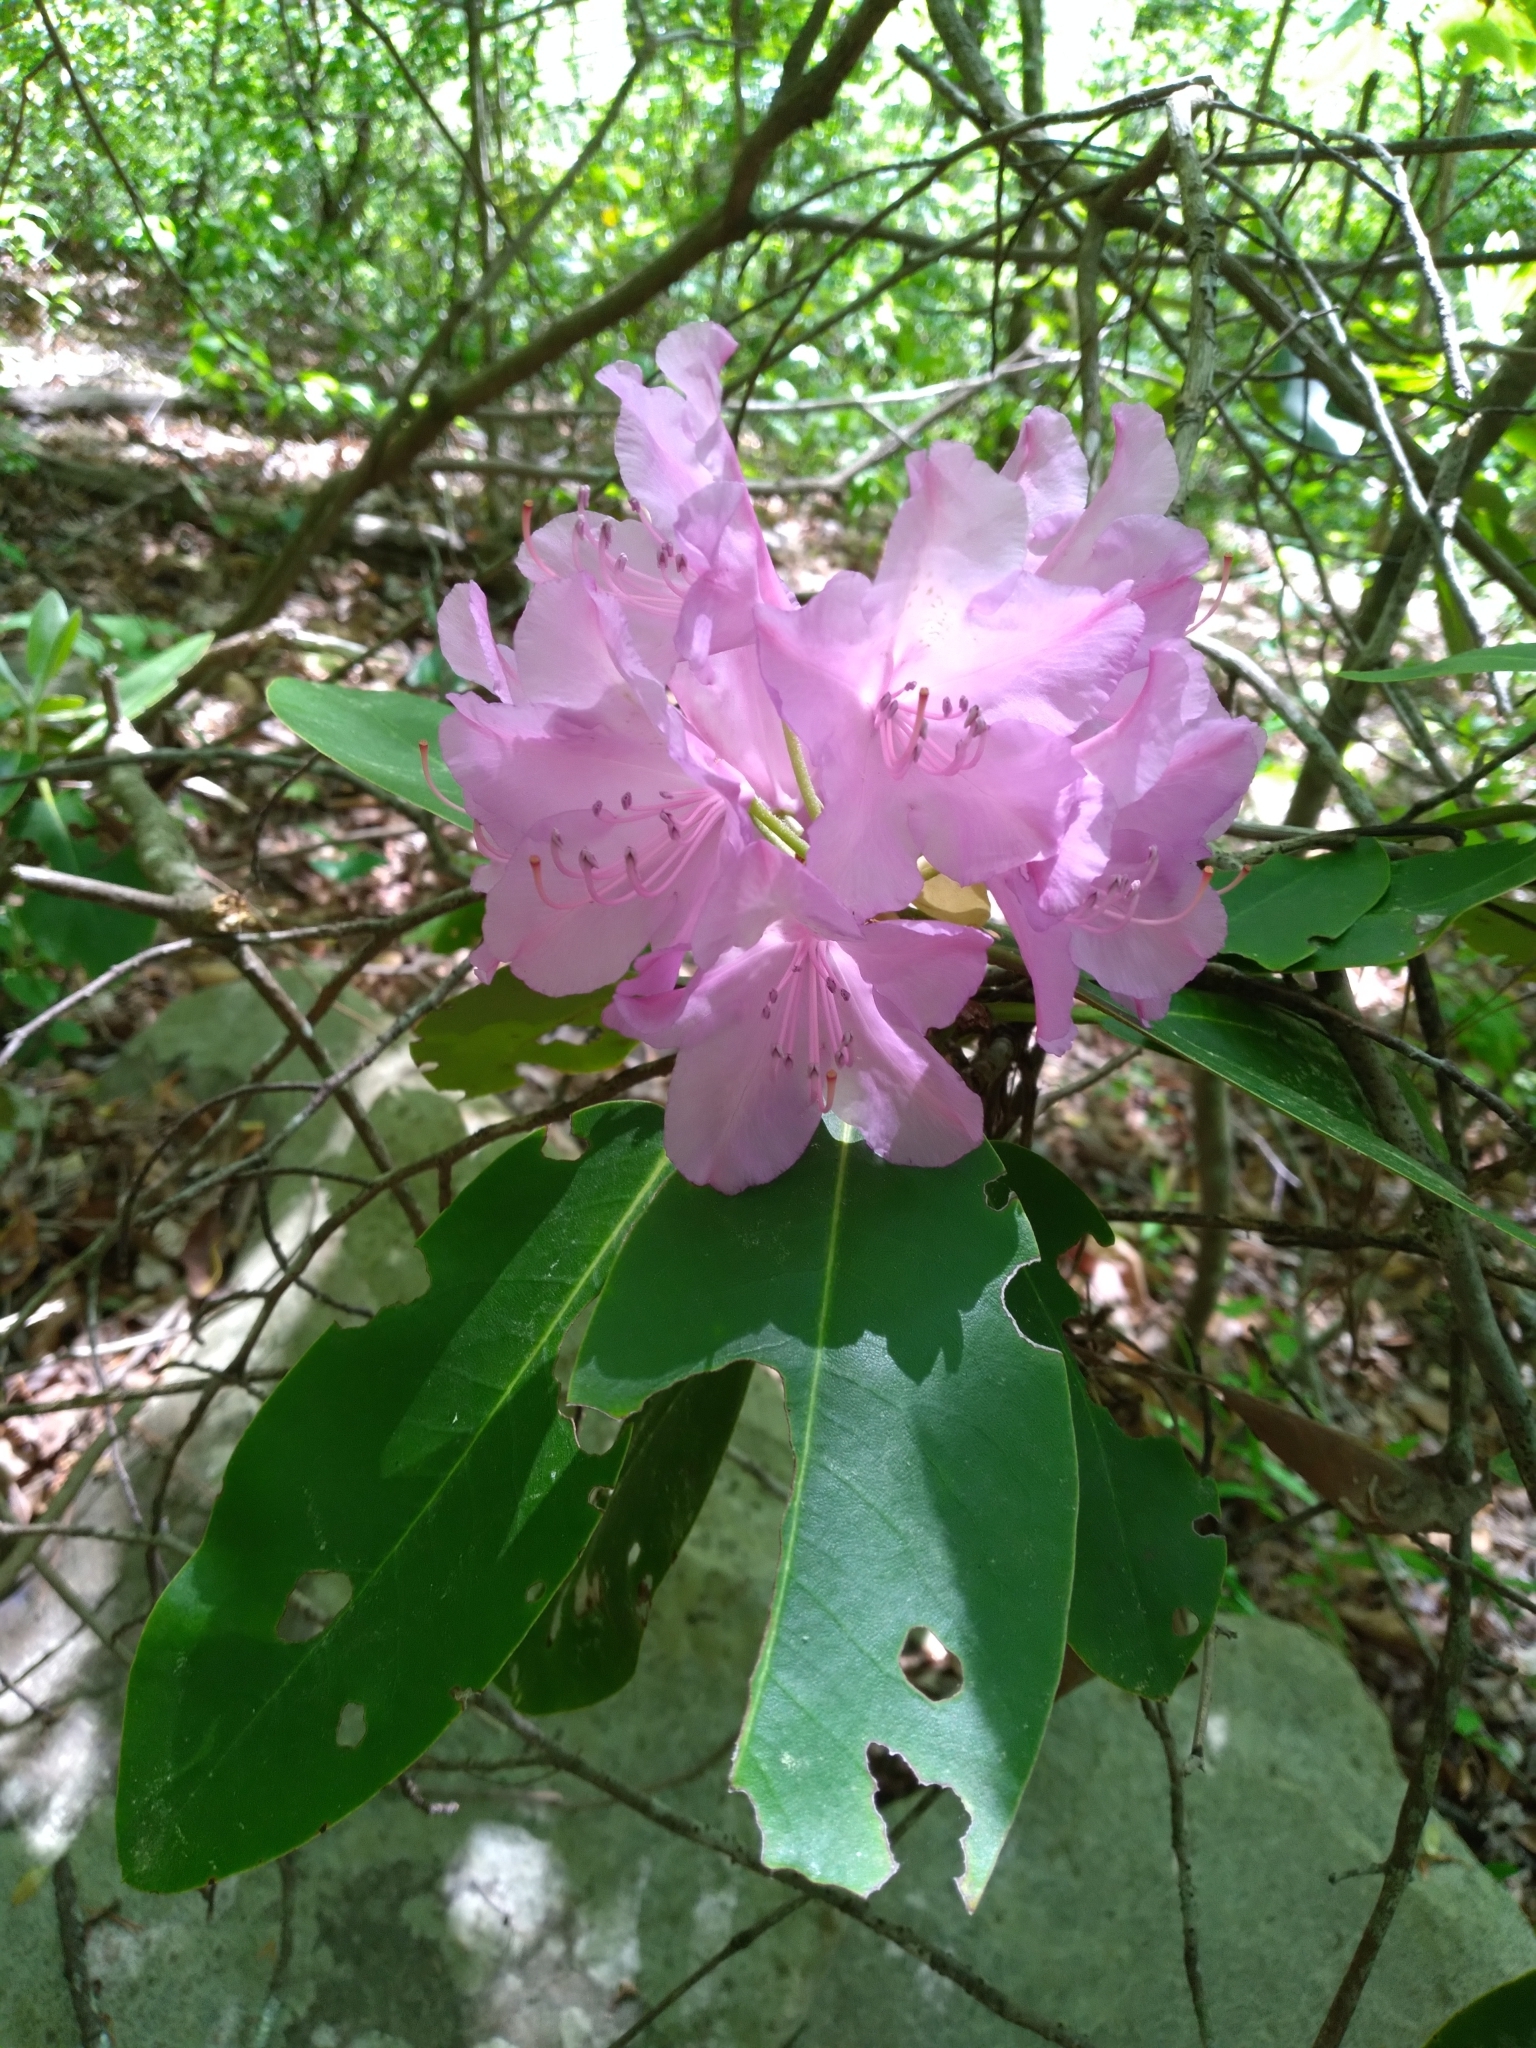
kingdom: Plantae
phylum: Tracheophyta
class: Magnoliopsida
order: Ericales
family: Ericaceae
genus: Rhododendron
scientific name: Rhododendron catawbiense
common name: Catawba rhododendron
